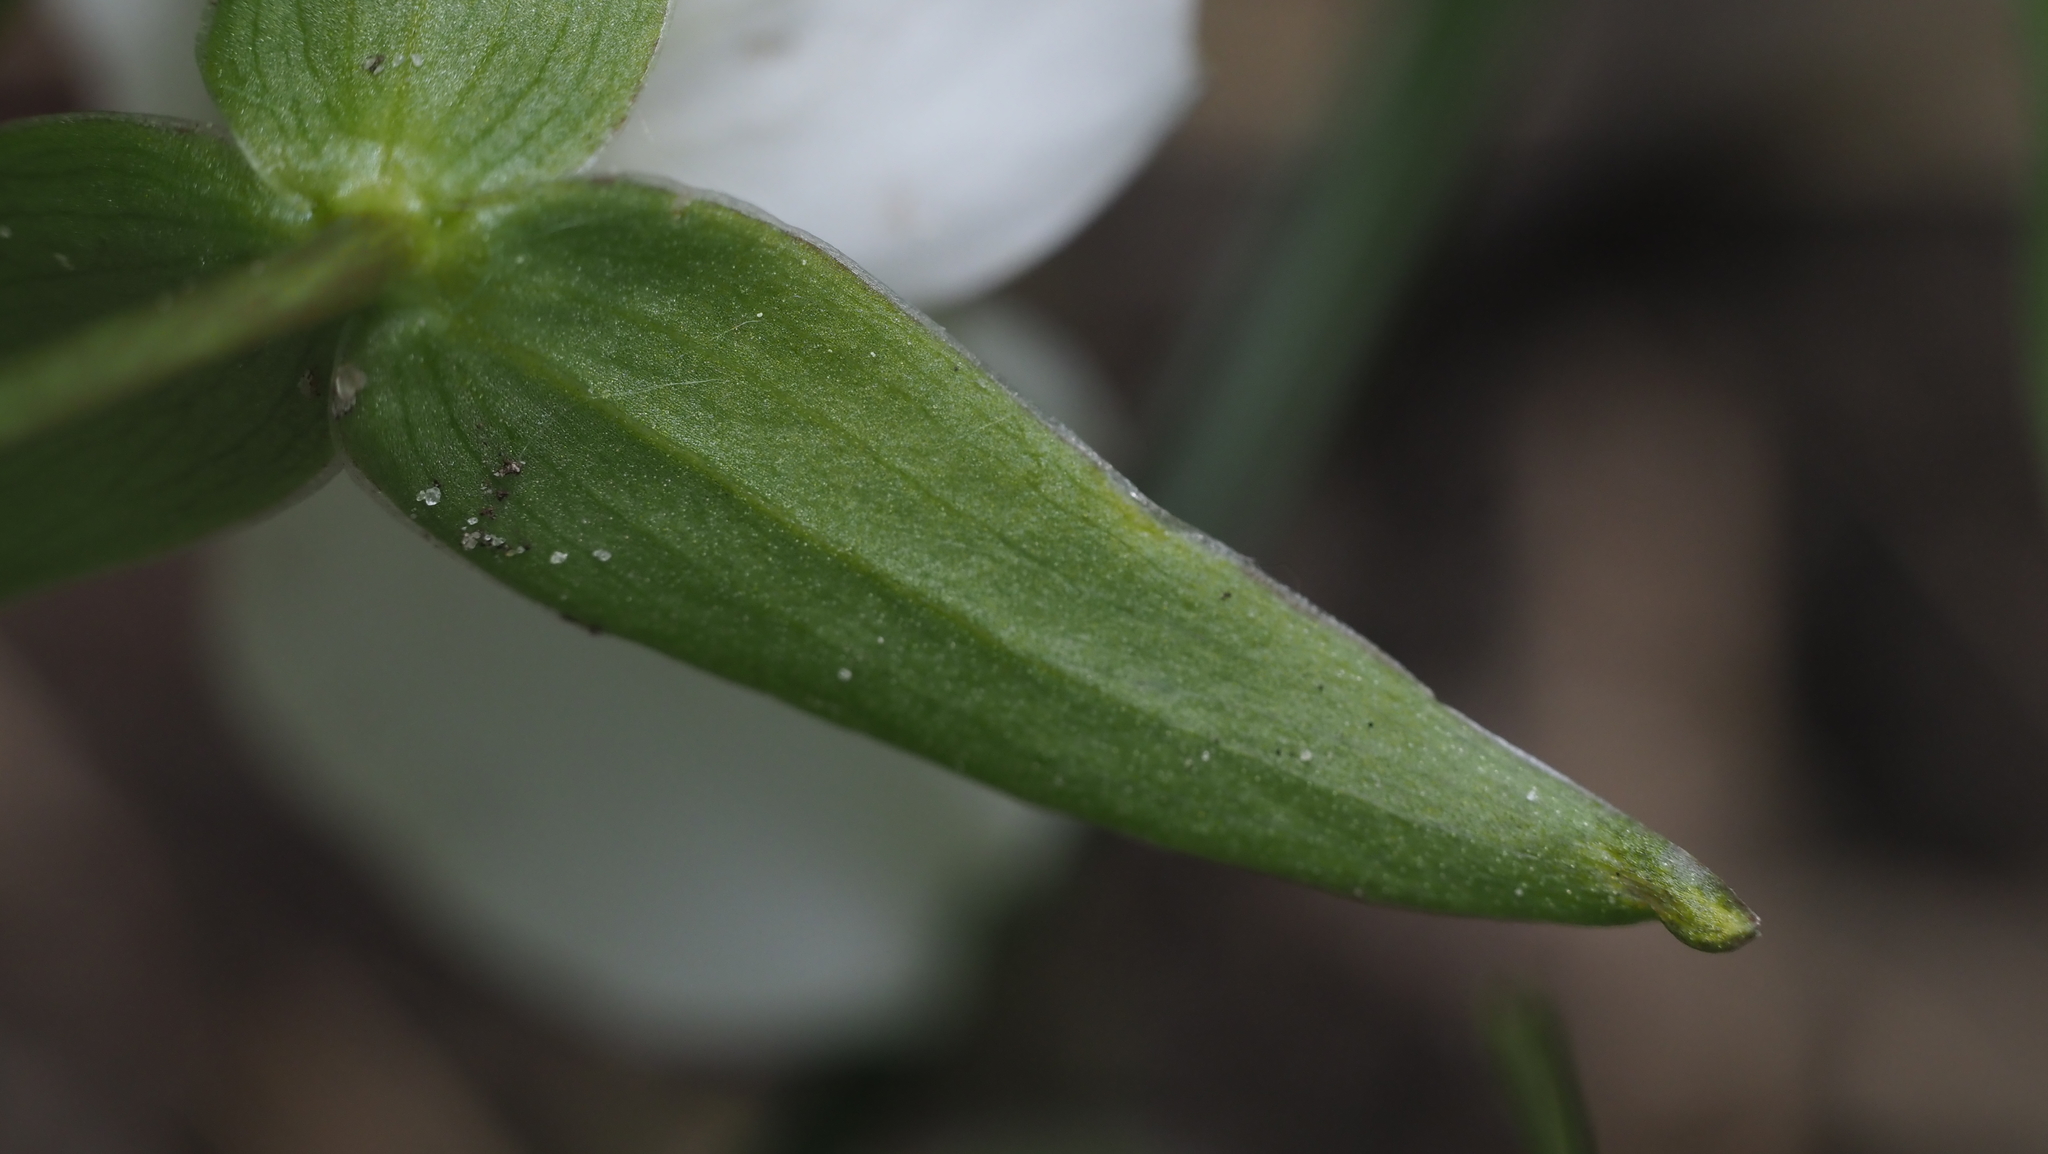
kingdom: Plantae
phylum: Tracheophyta
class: Liliopsida
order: Liliales
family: Melanthiaceae
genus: Trillium
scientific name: Trillium grandiflorum
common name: Great white trillium
